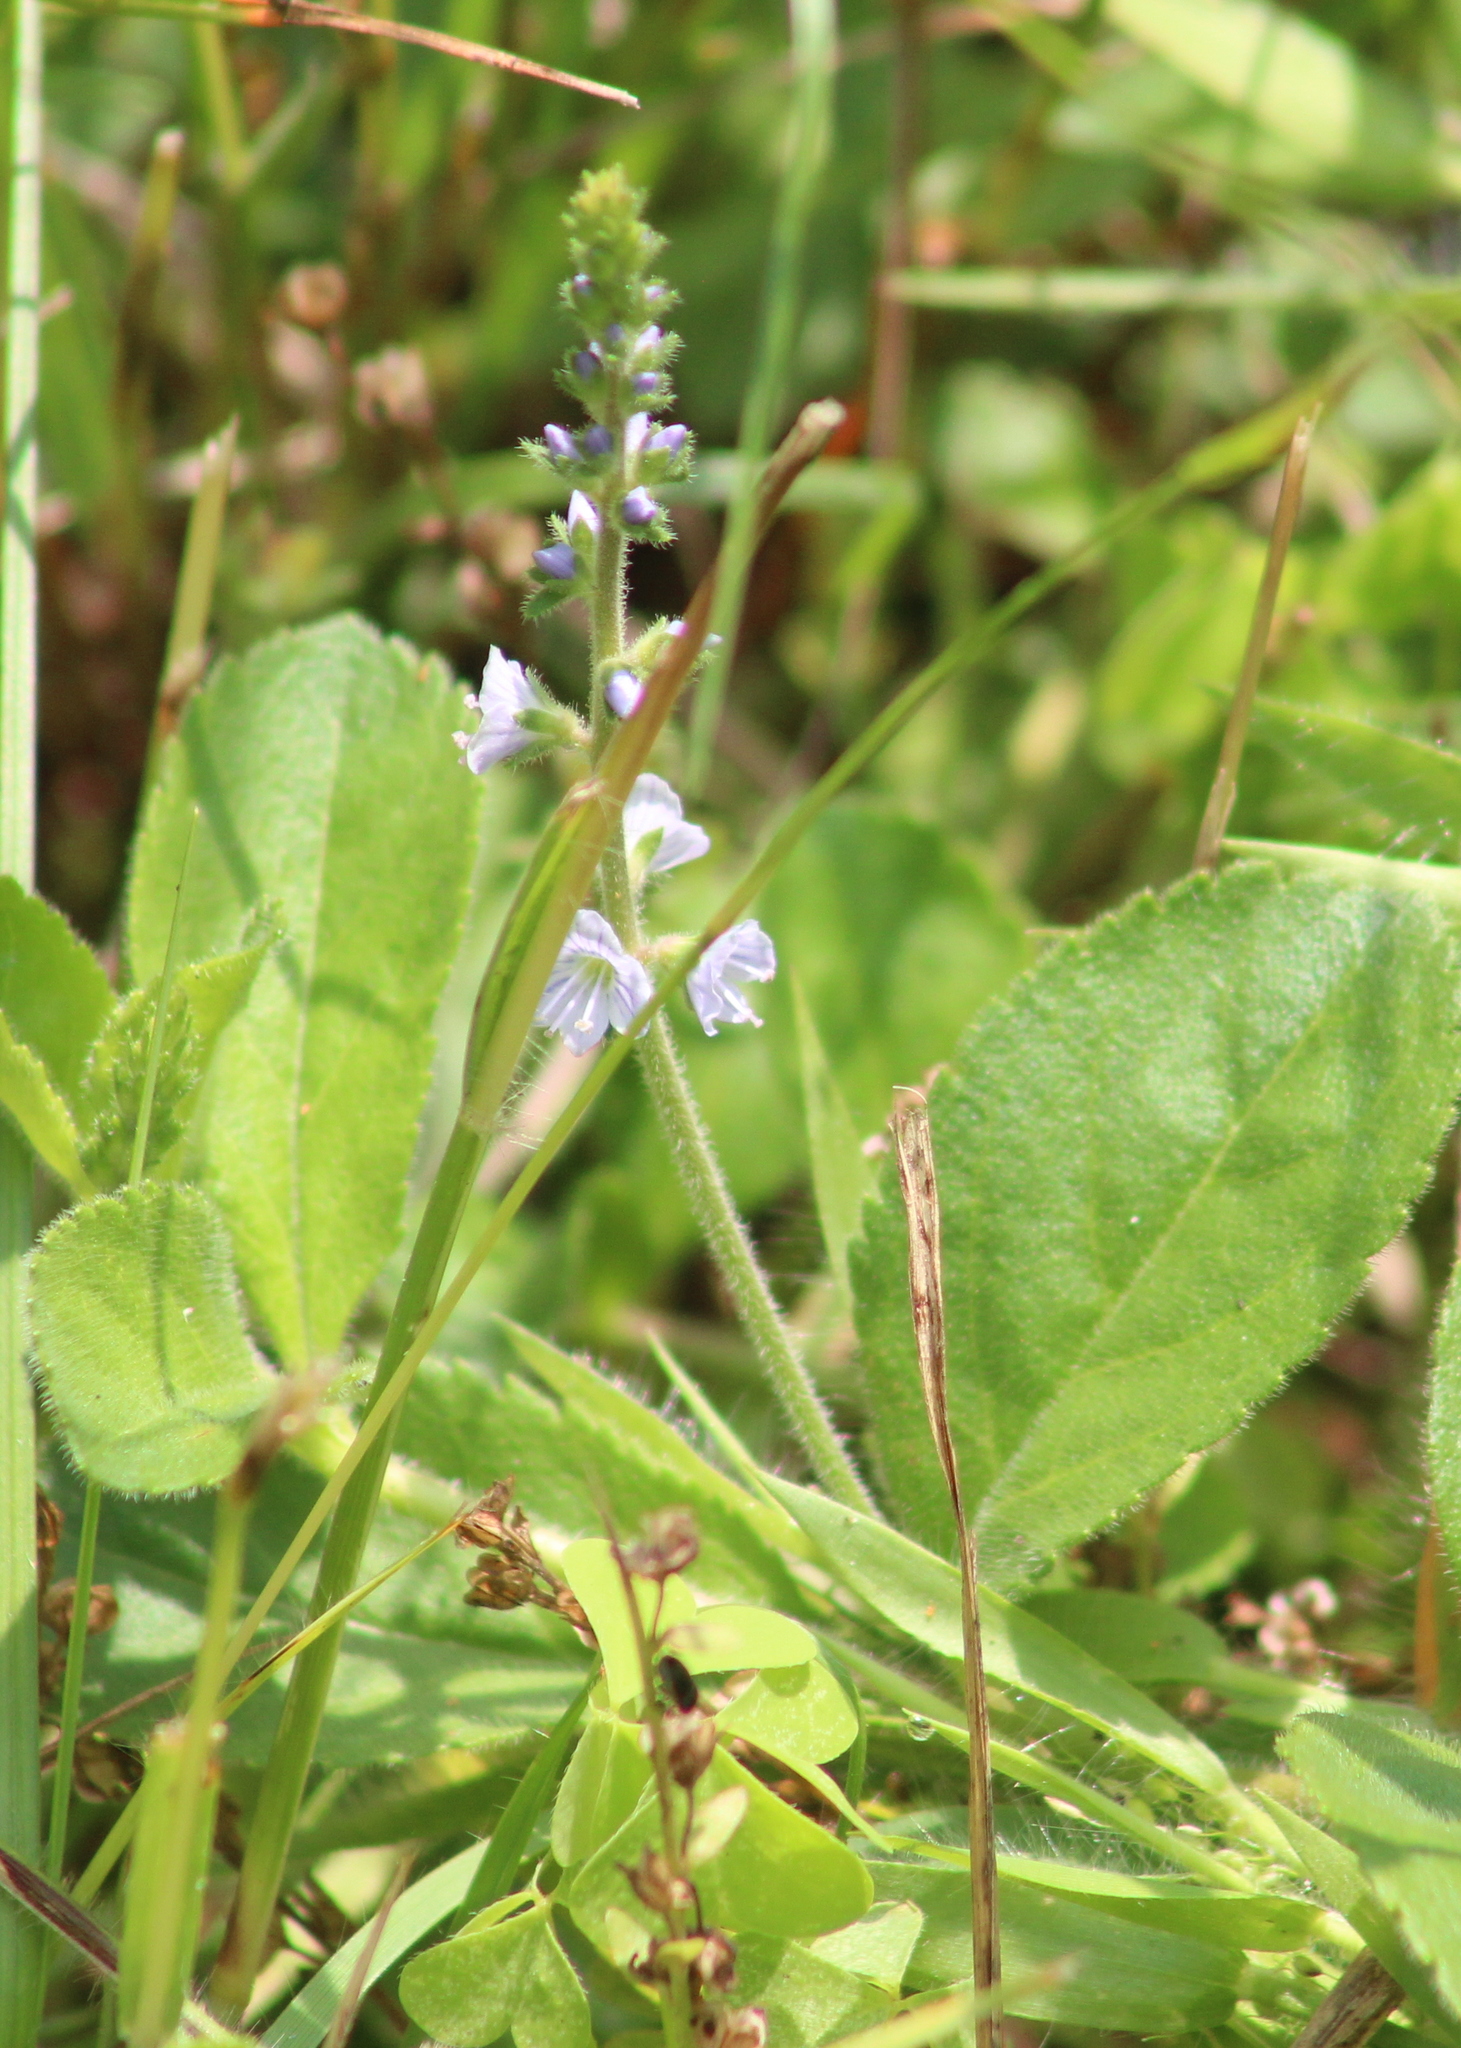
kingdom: Plantae
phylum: Tracheophyta
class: Magnoliopsida
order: Lamiales
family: Plantaginaceae
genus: Veronica
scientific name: Veronica officinalis
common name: Common speedwell
